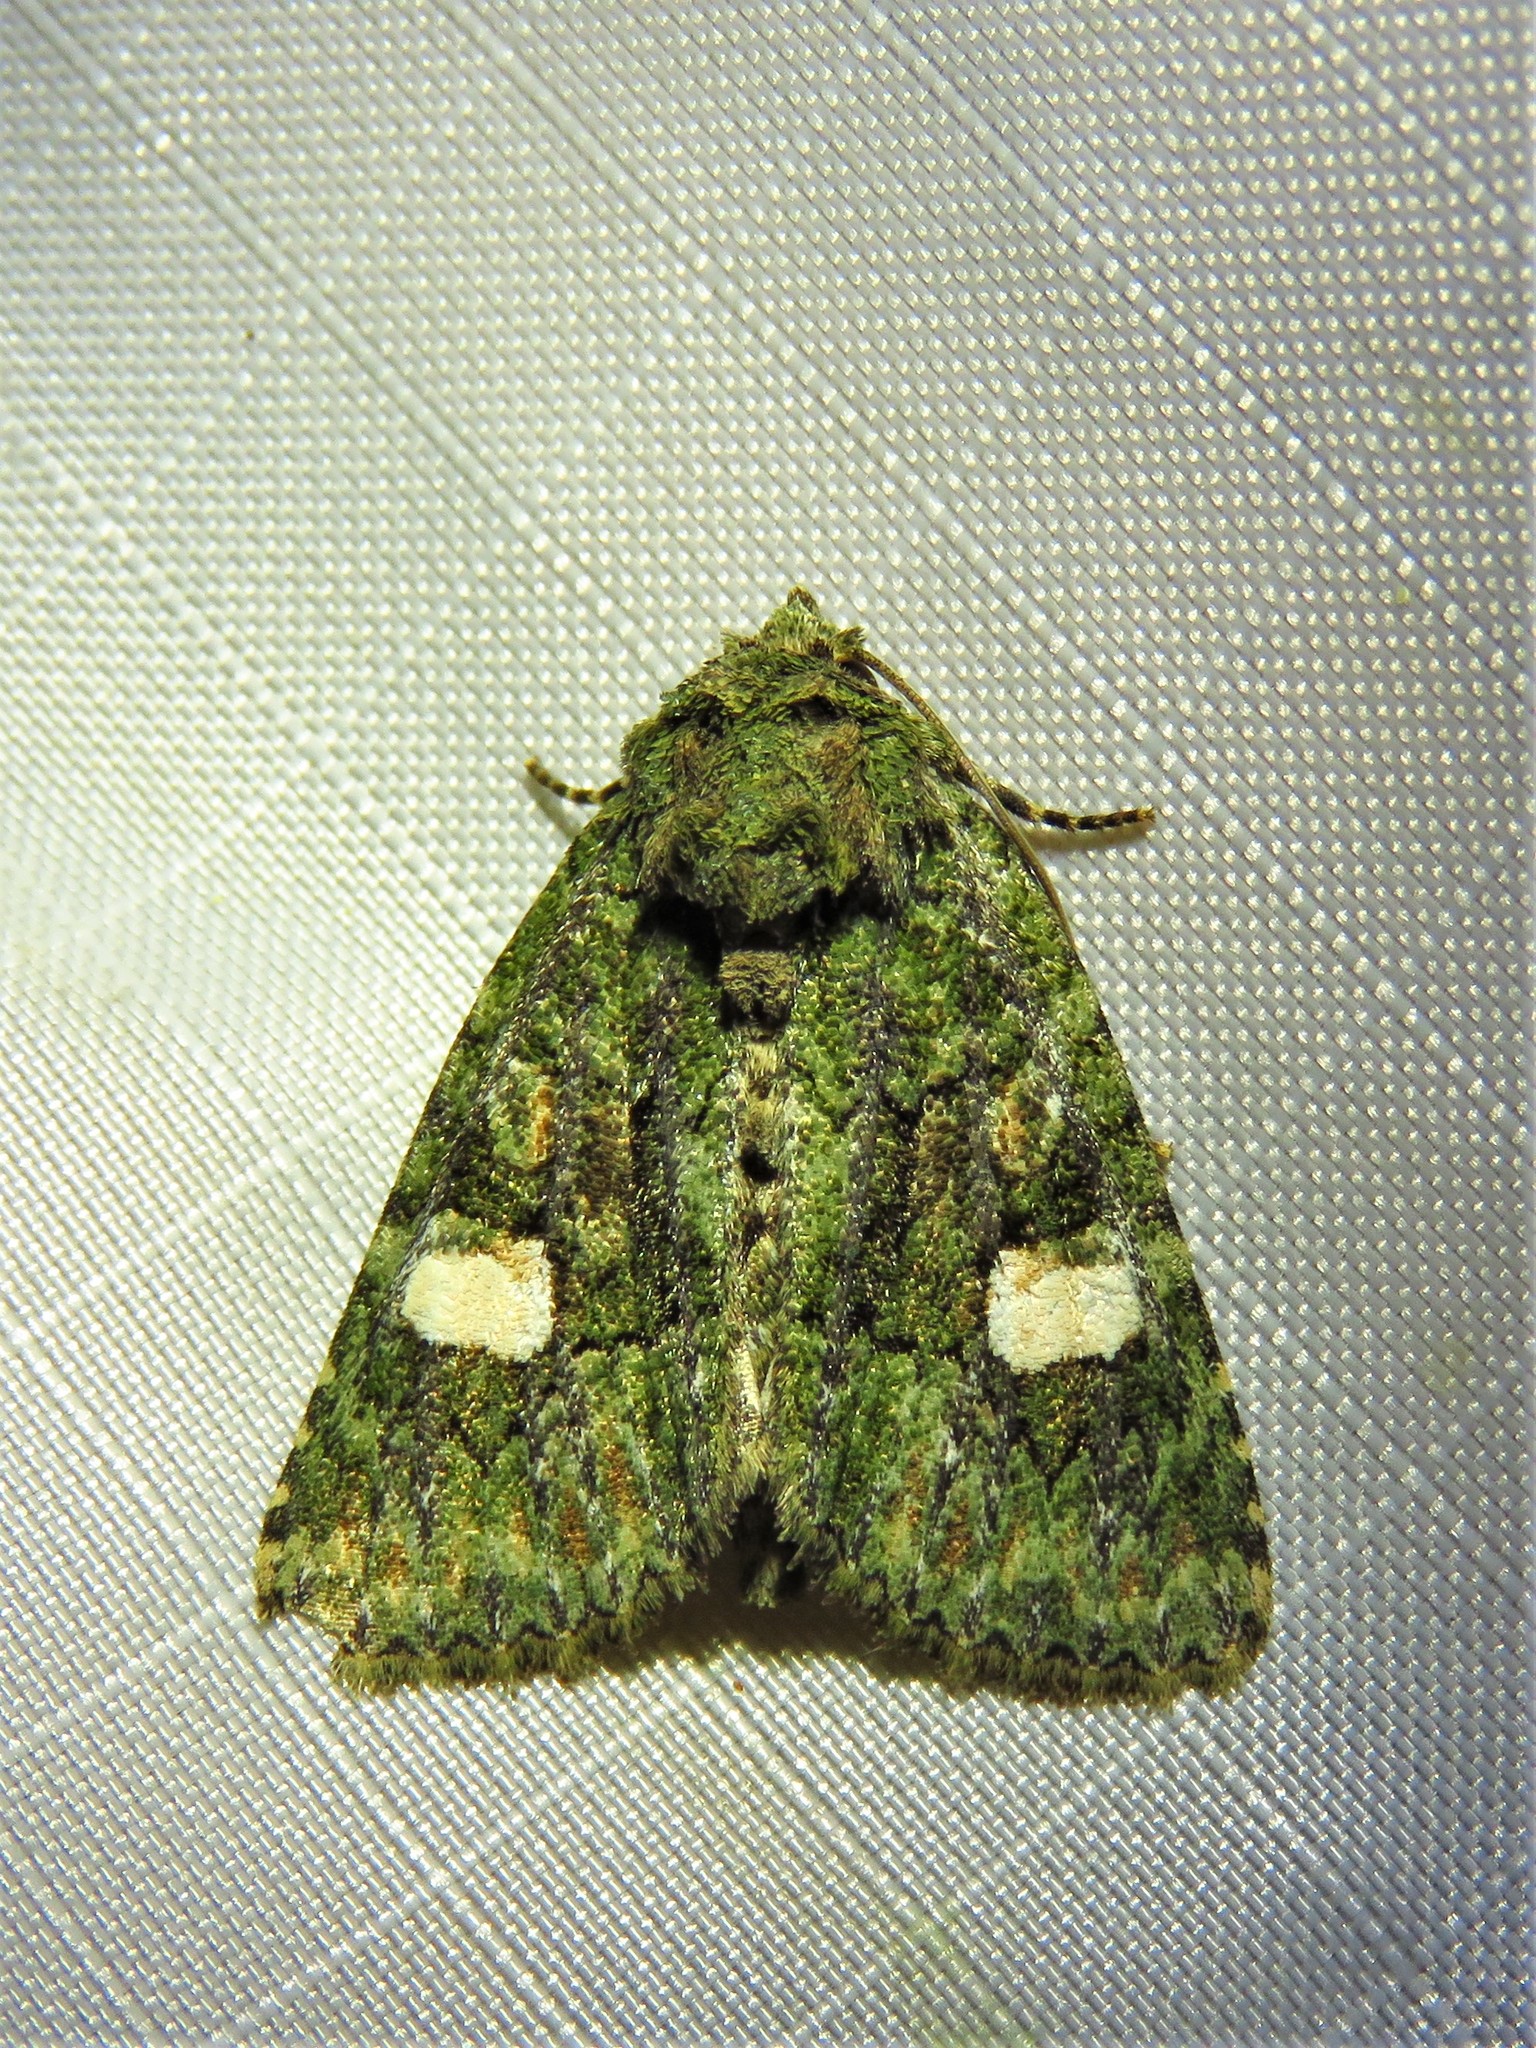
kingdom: Animalia
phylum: Arthropoda
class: Insecta
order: Lepidoptera
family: Noctuidae
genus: Phosphila
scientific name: Phosphila miselioides
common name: Spotted phosphila moth
